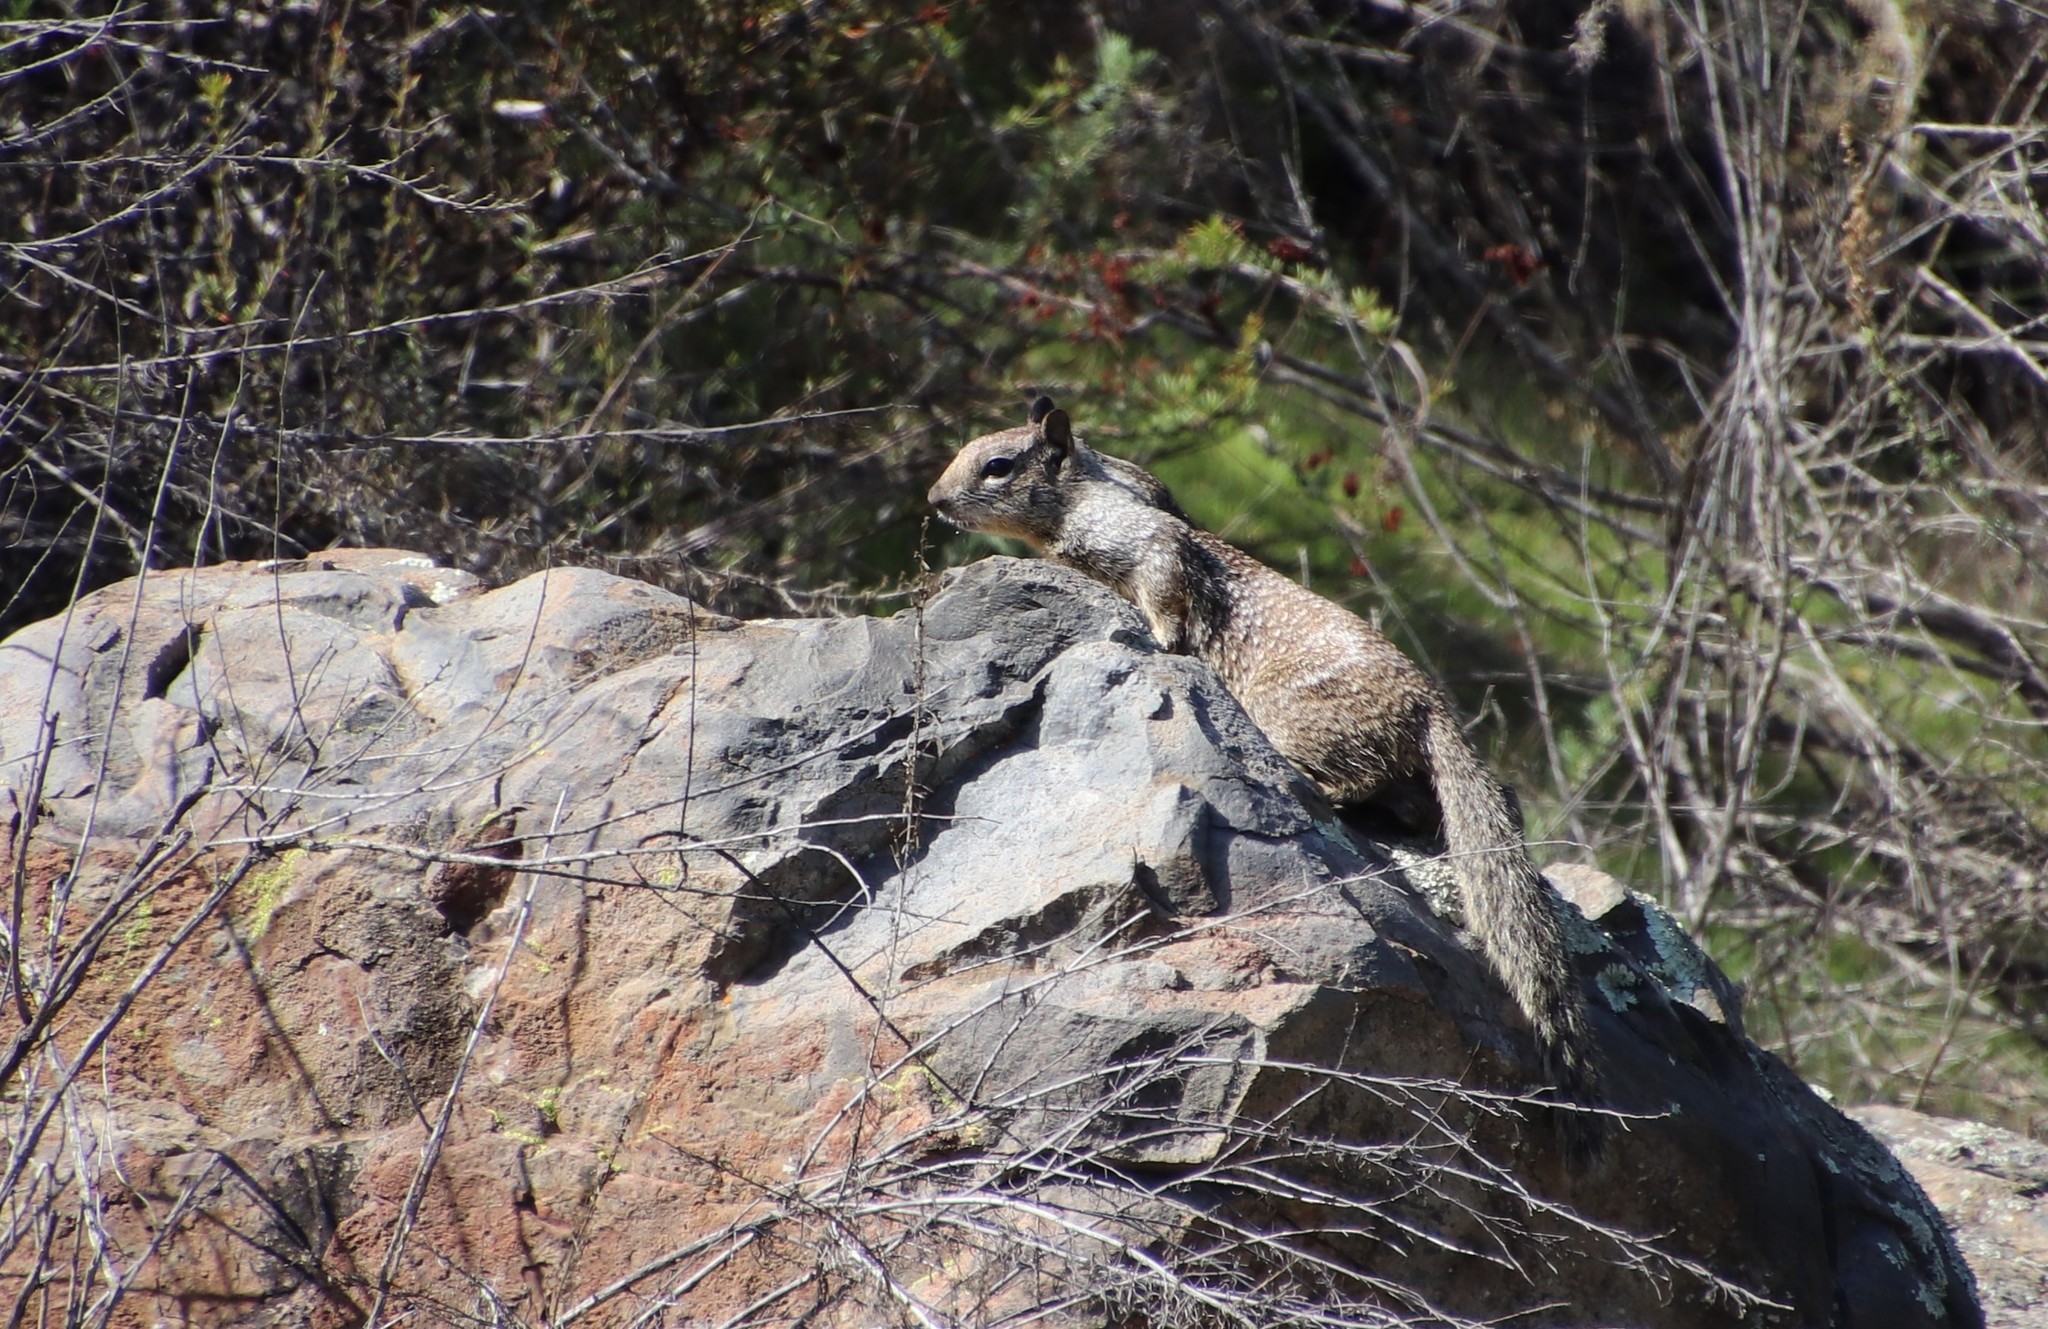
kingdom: Animalia
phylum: Chordata
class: Mammalia
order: Rodentia
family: Sciuridae
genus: Otospermophilus
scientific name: Otospermophilus beecheyi
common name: California ground squirrel
